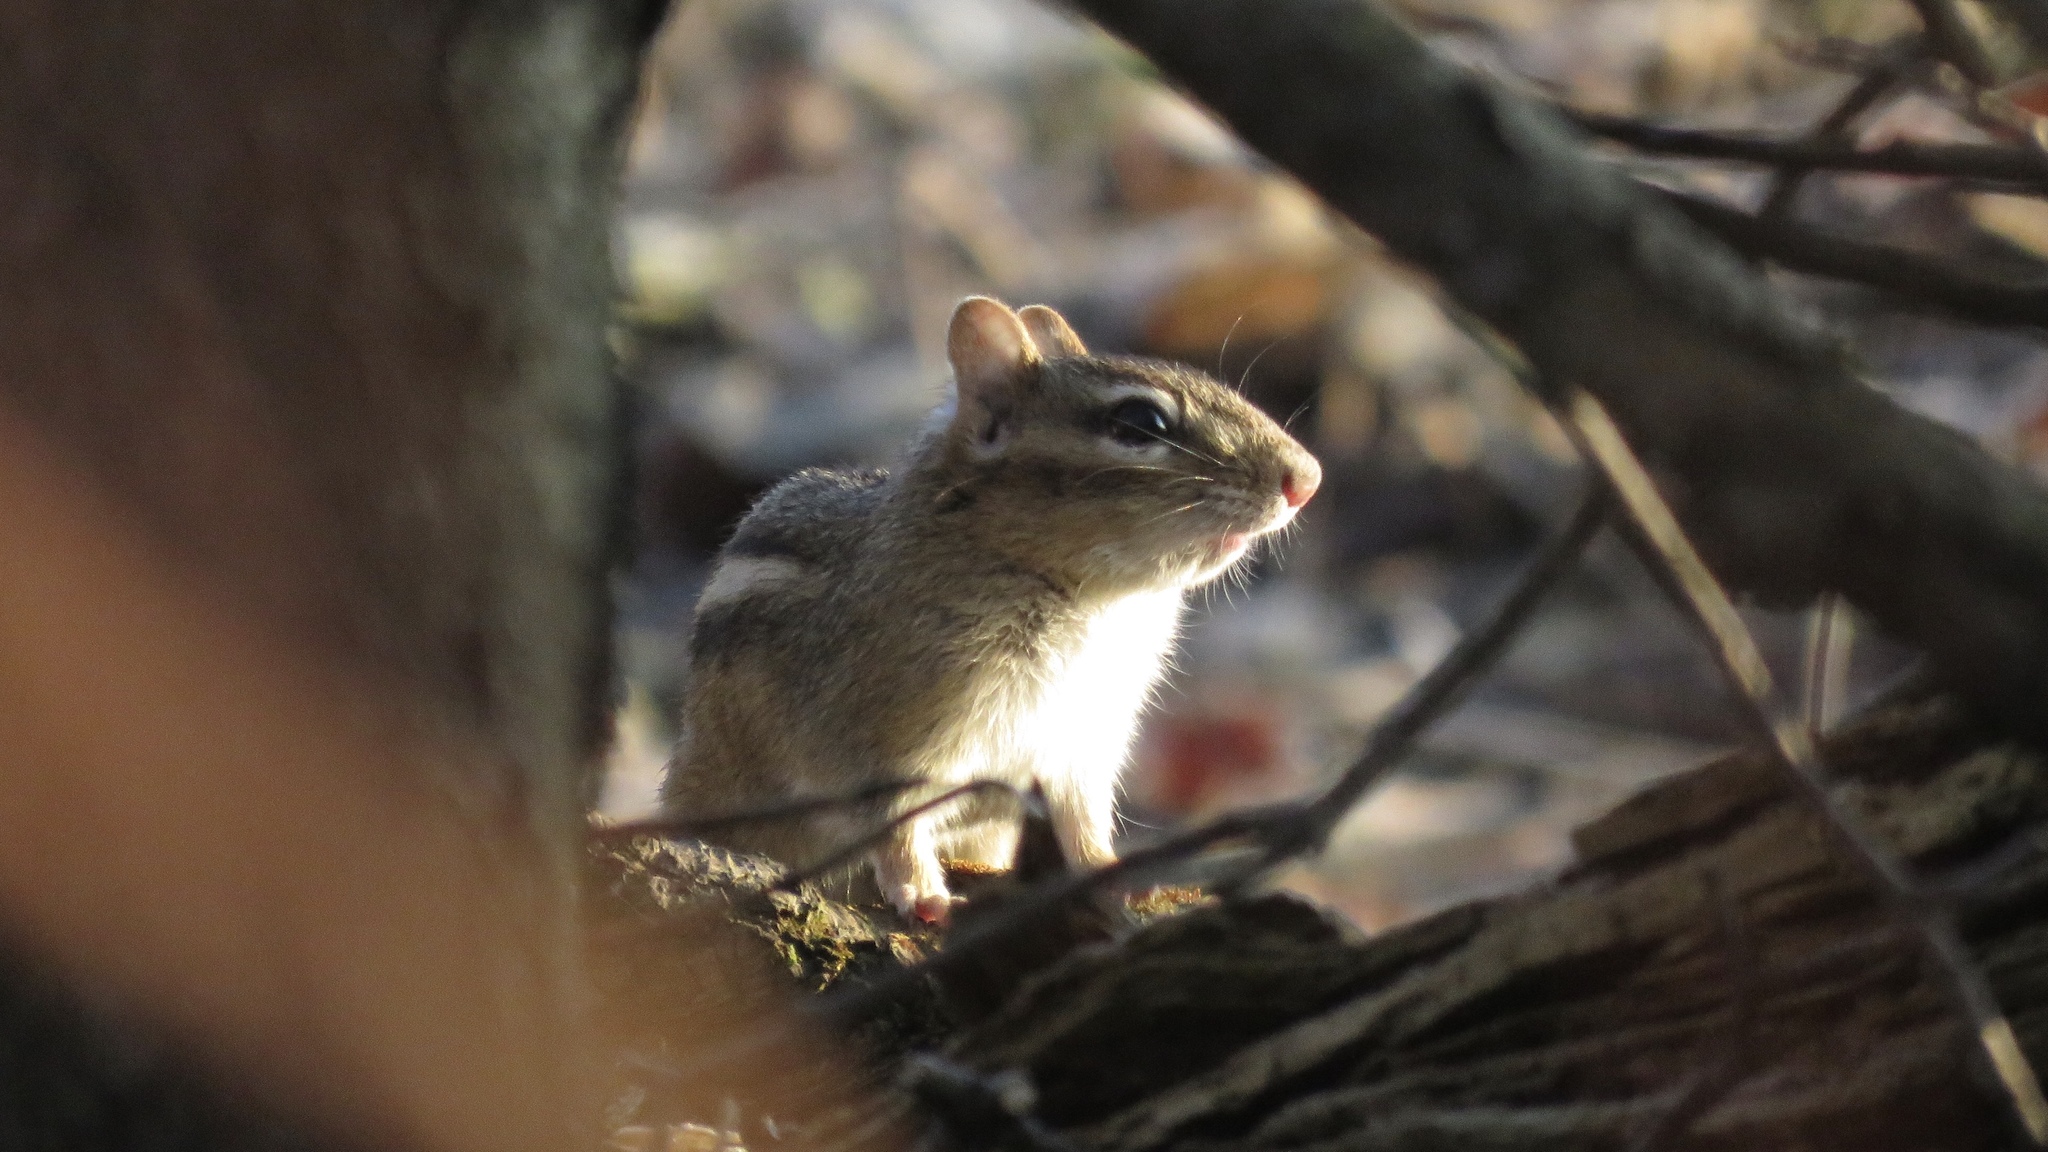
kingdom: Animalia
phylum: Chordata
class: Mammalia
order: Rodentia
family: Sciuridae
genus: Tamias
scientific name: Tamias striatus
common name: Eastern chipmunk
